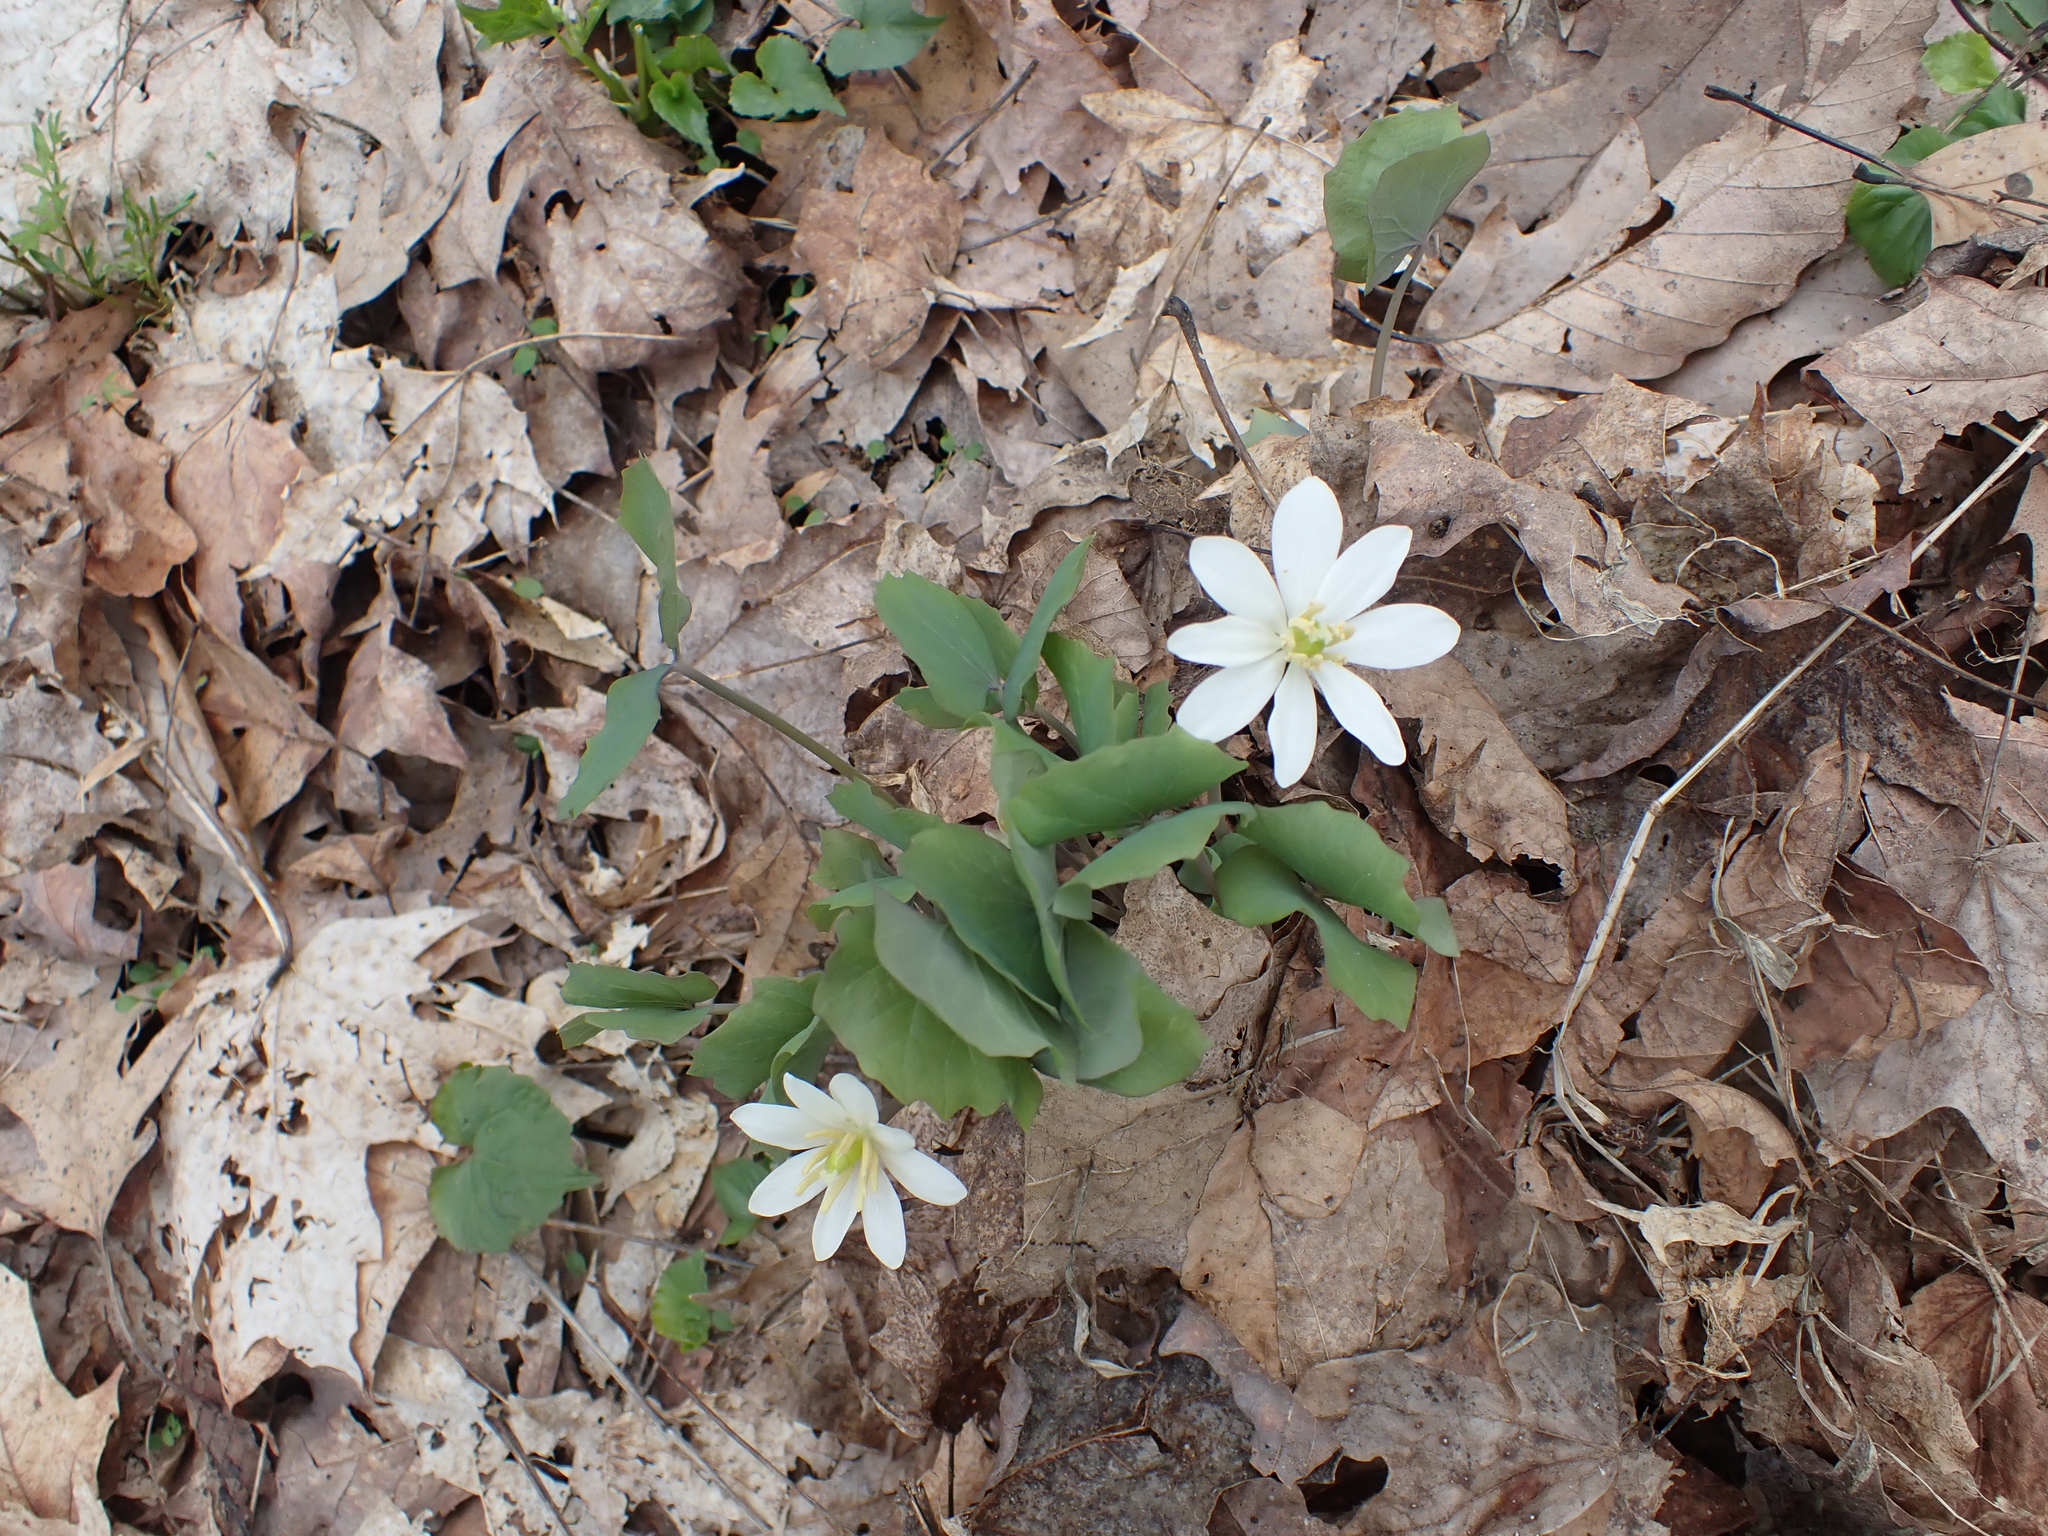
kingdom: Plantae
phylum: Tracheophyta
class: Magnoliopsida
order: Ranunculales
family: Berberidaceae
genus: Jeffersonia
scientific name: Jeffersonia diphylla
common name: Rheumatism-root
